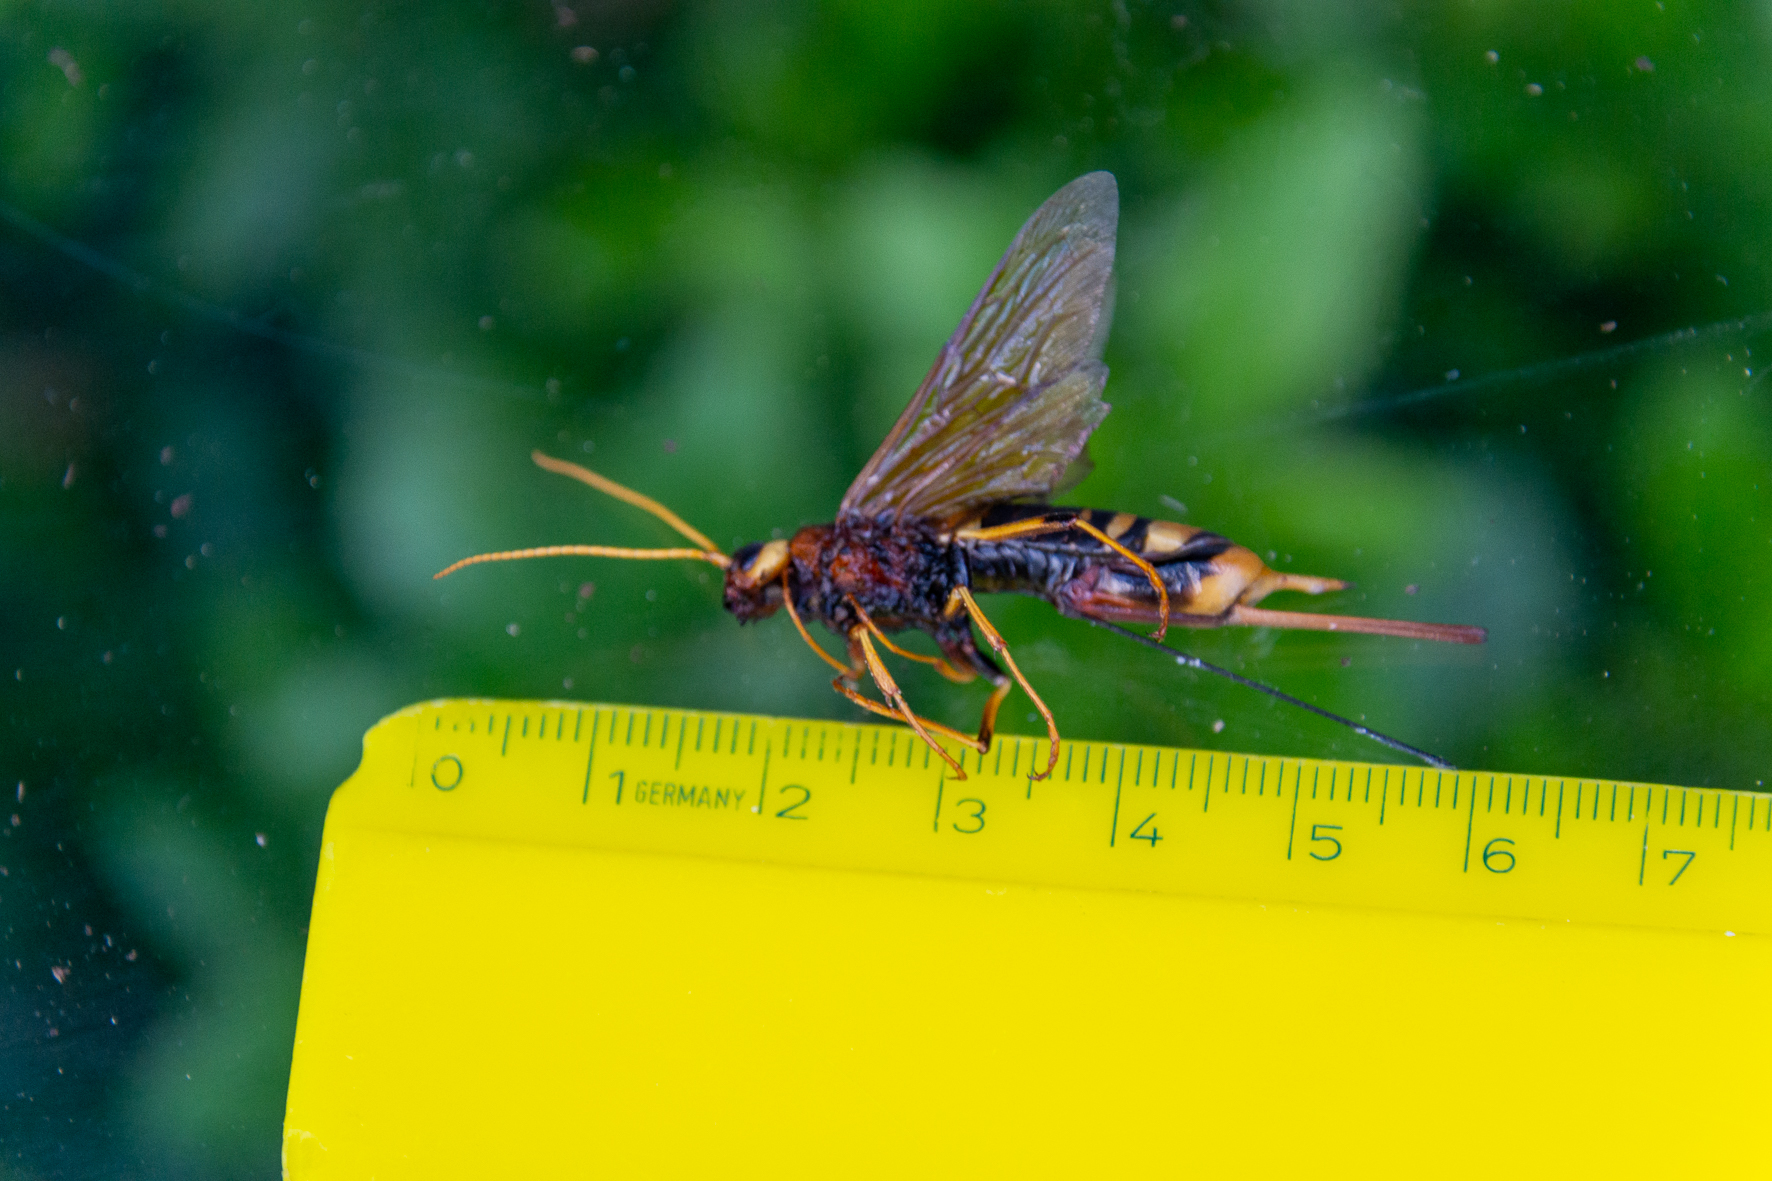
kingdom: Animalia
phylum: Arthropoda
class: Insecta
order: Hymenoptera
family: Siricidae
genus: Urocerus
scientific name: Urocerus augur
